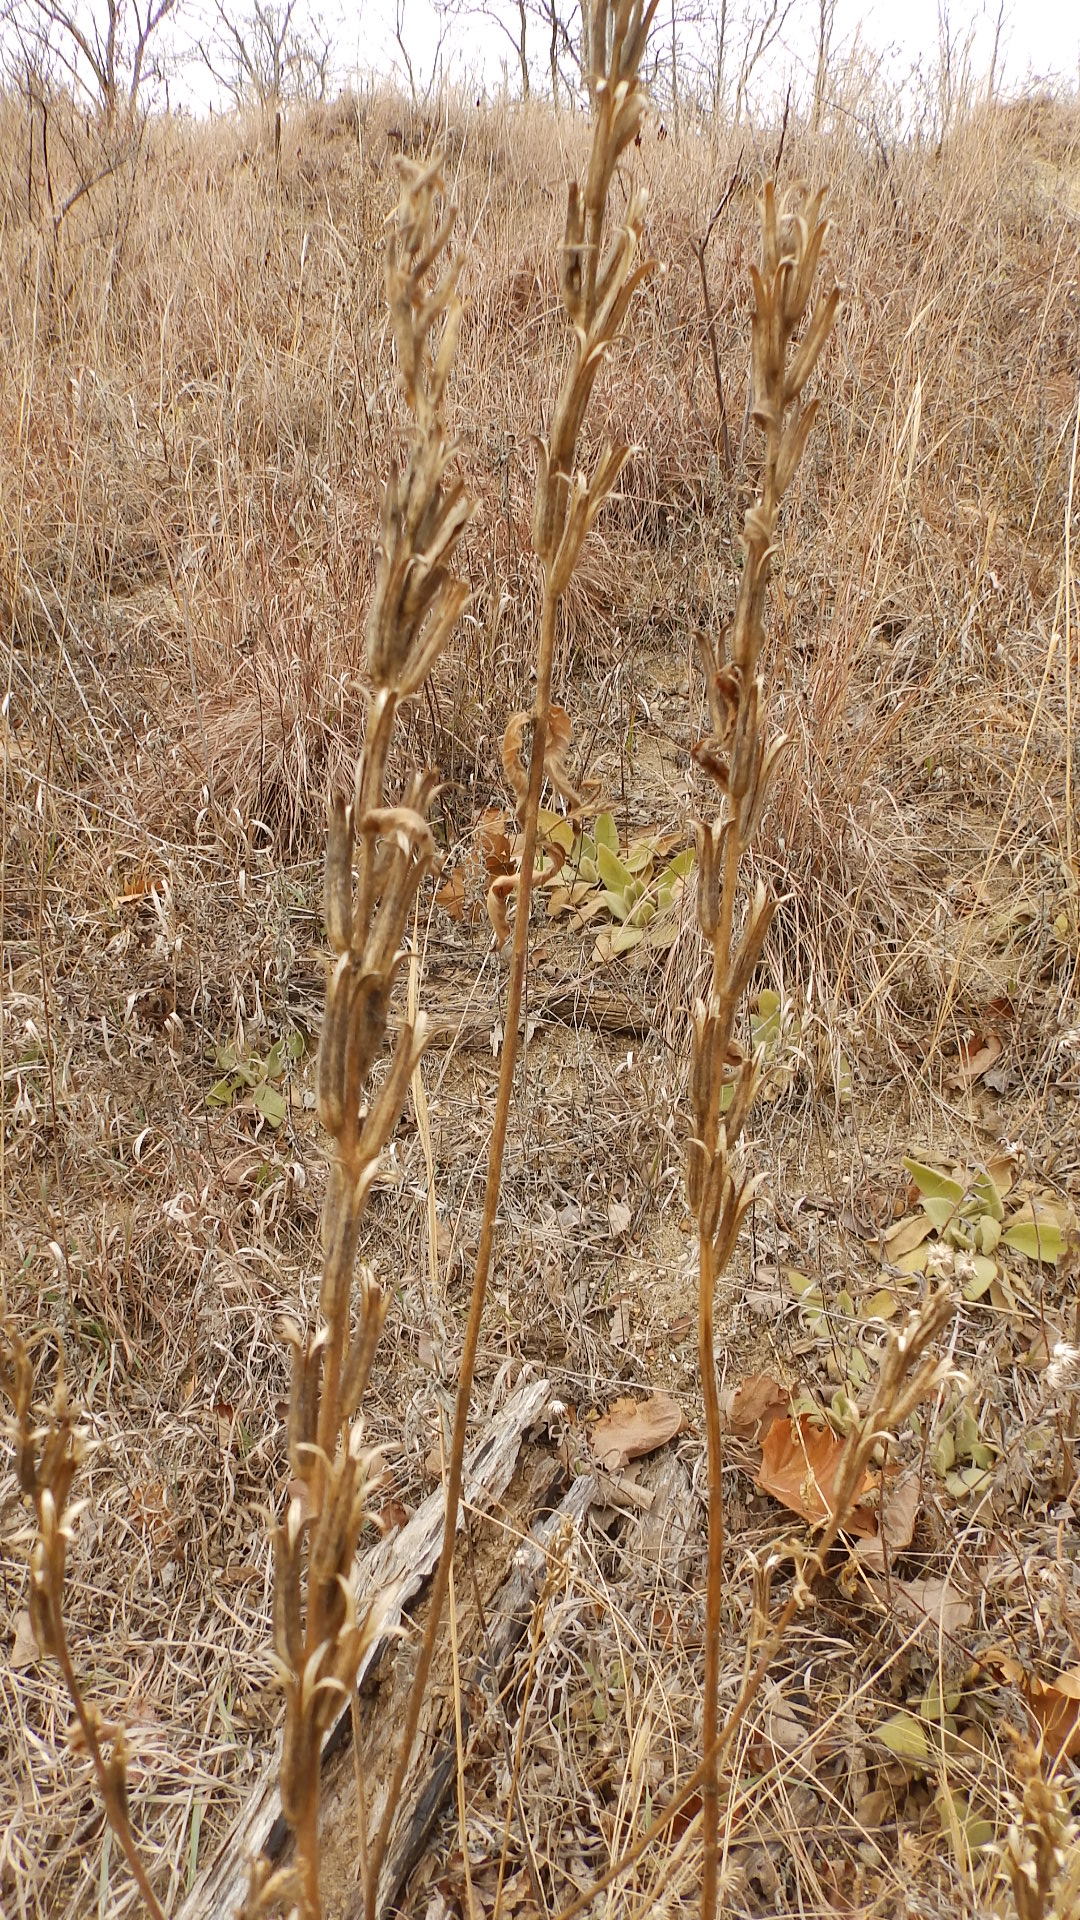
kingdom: Plantae
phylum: Tracheophyta
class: Magnoliopsida
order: Myrtales
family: Onagraceae
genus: Oenothera
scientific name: Oenothera biennis
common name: Common evening-primrose
